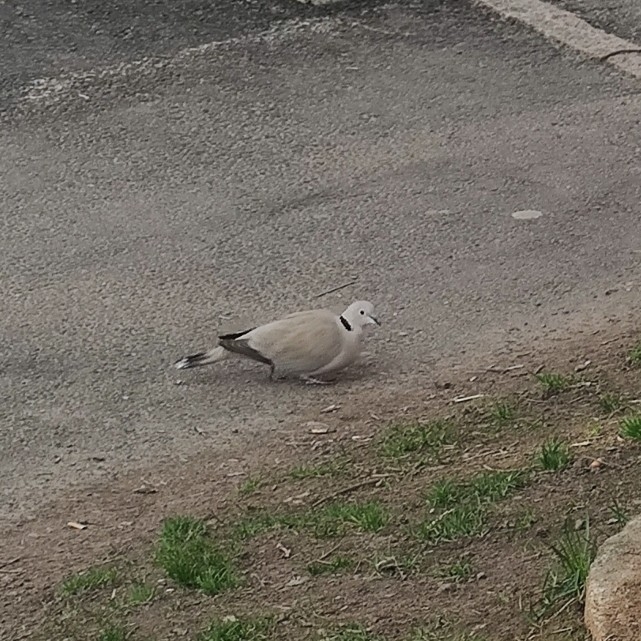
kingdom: Animalia
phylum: Chordata
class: Aves
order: Columbiformes
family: Columbidae
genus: Streptopelia
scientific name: Streptopelia decaocto
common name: Eurasian collared dove
